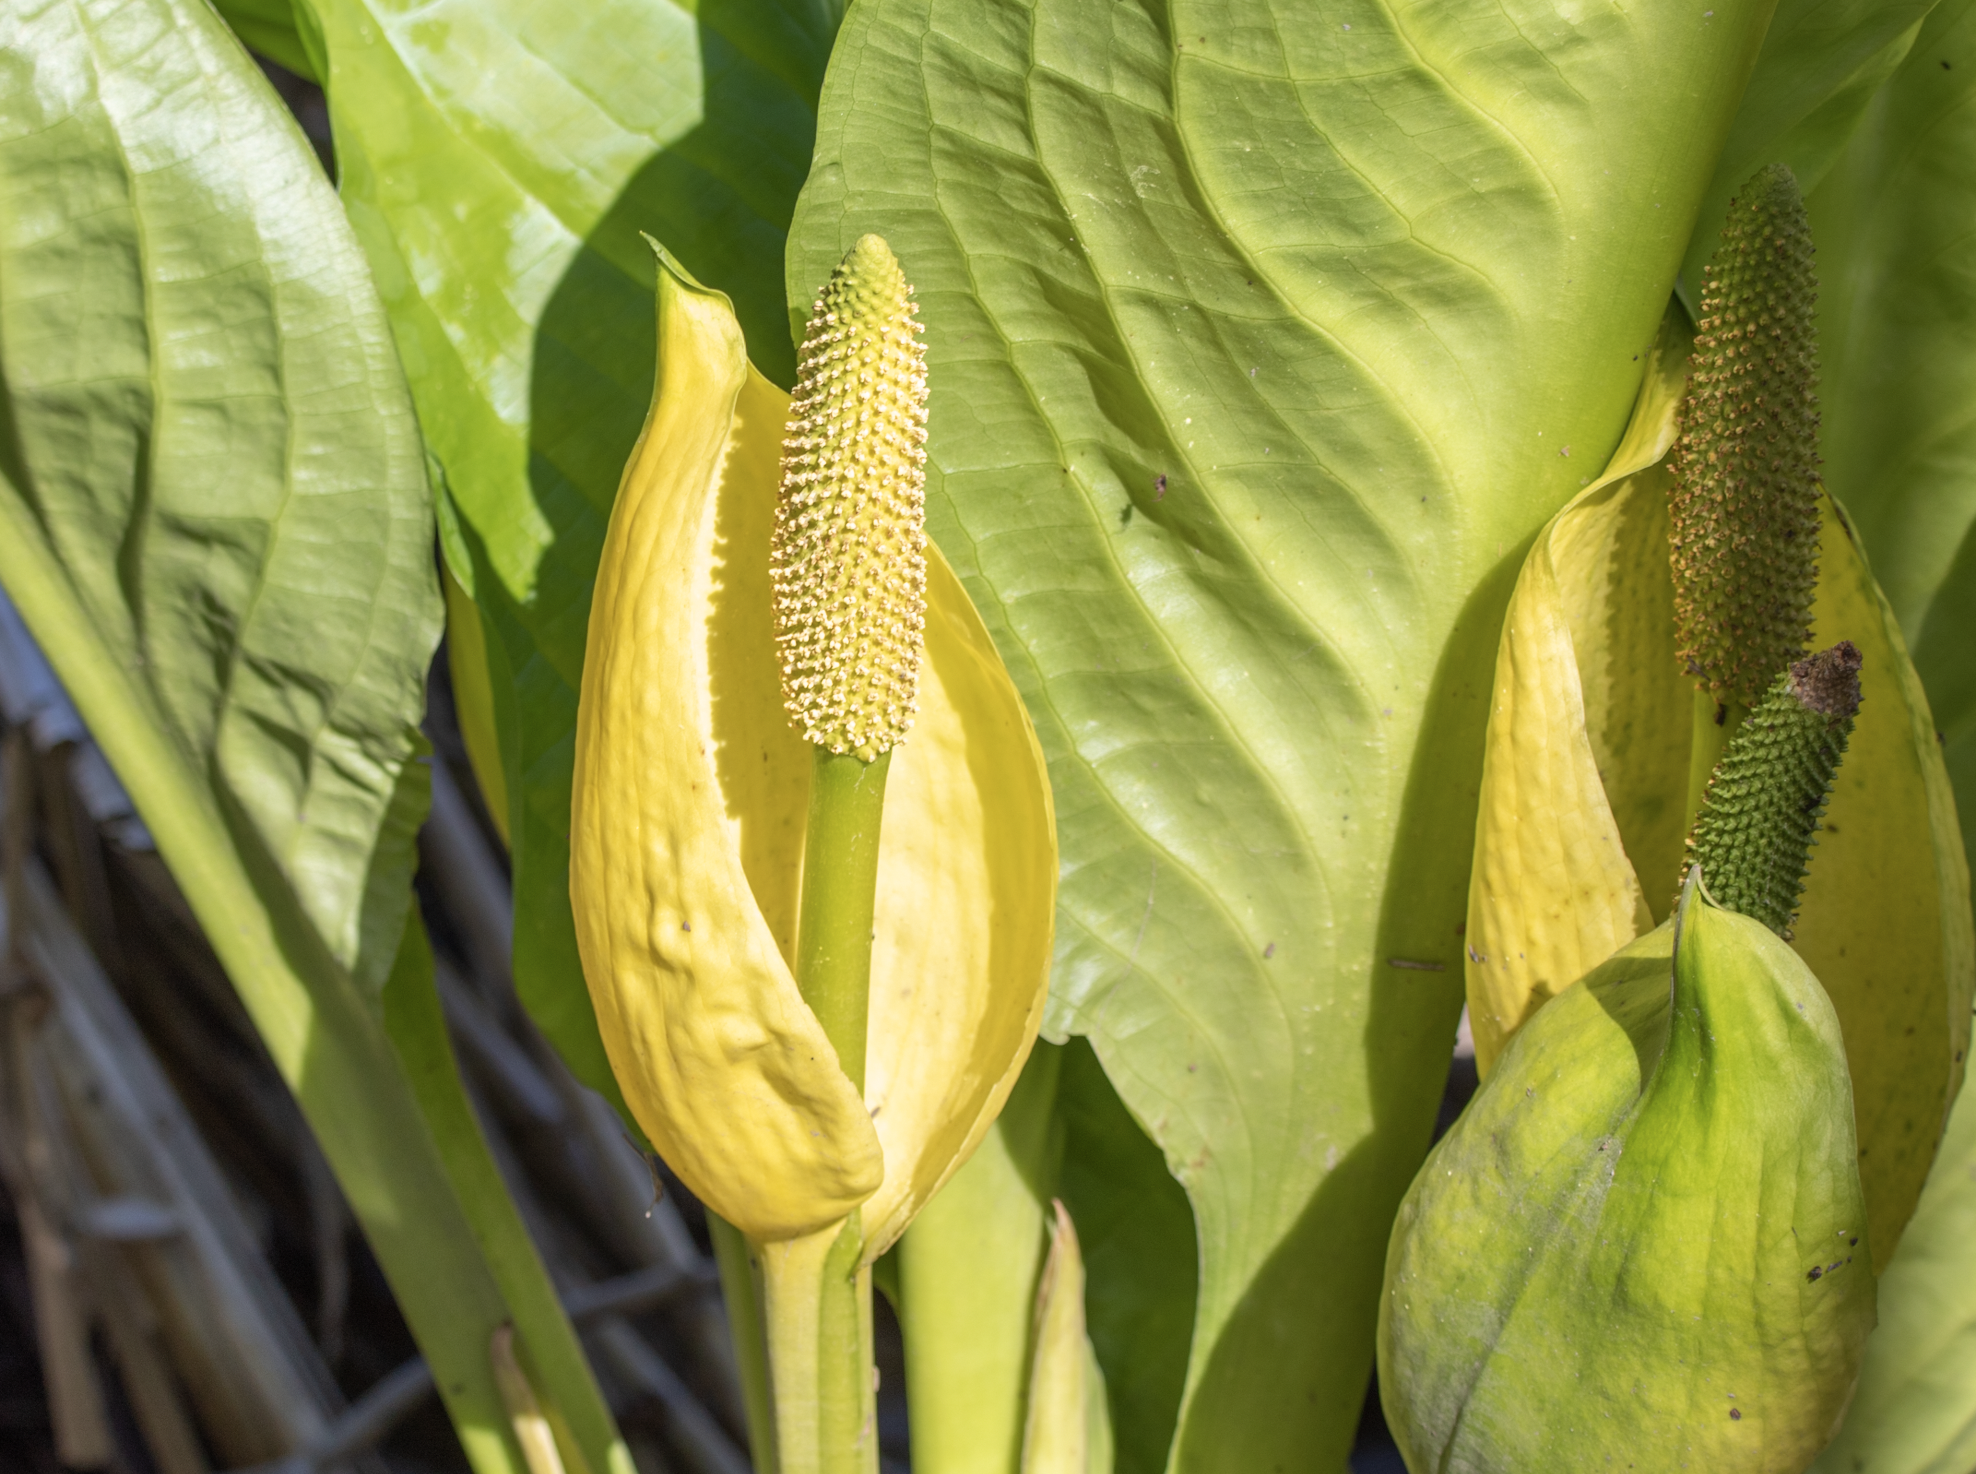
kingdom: Plantae
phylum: Tracheophyta
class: Liliopsida
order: Alismatales
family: Araceae
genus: Lysichiton
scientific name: Lysichiton americanus
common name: American skunk cabbage
